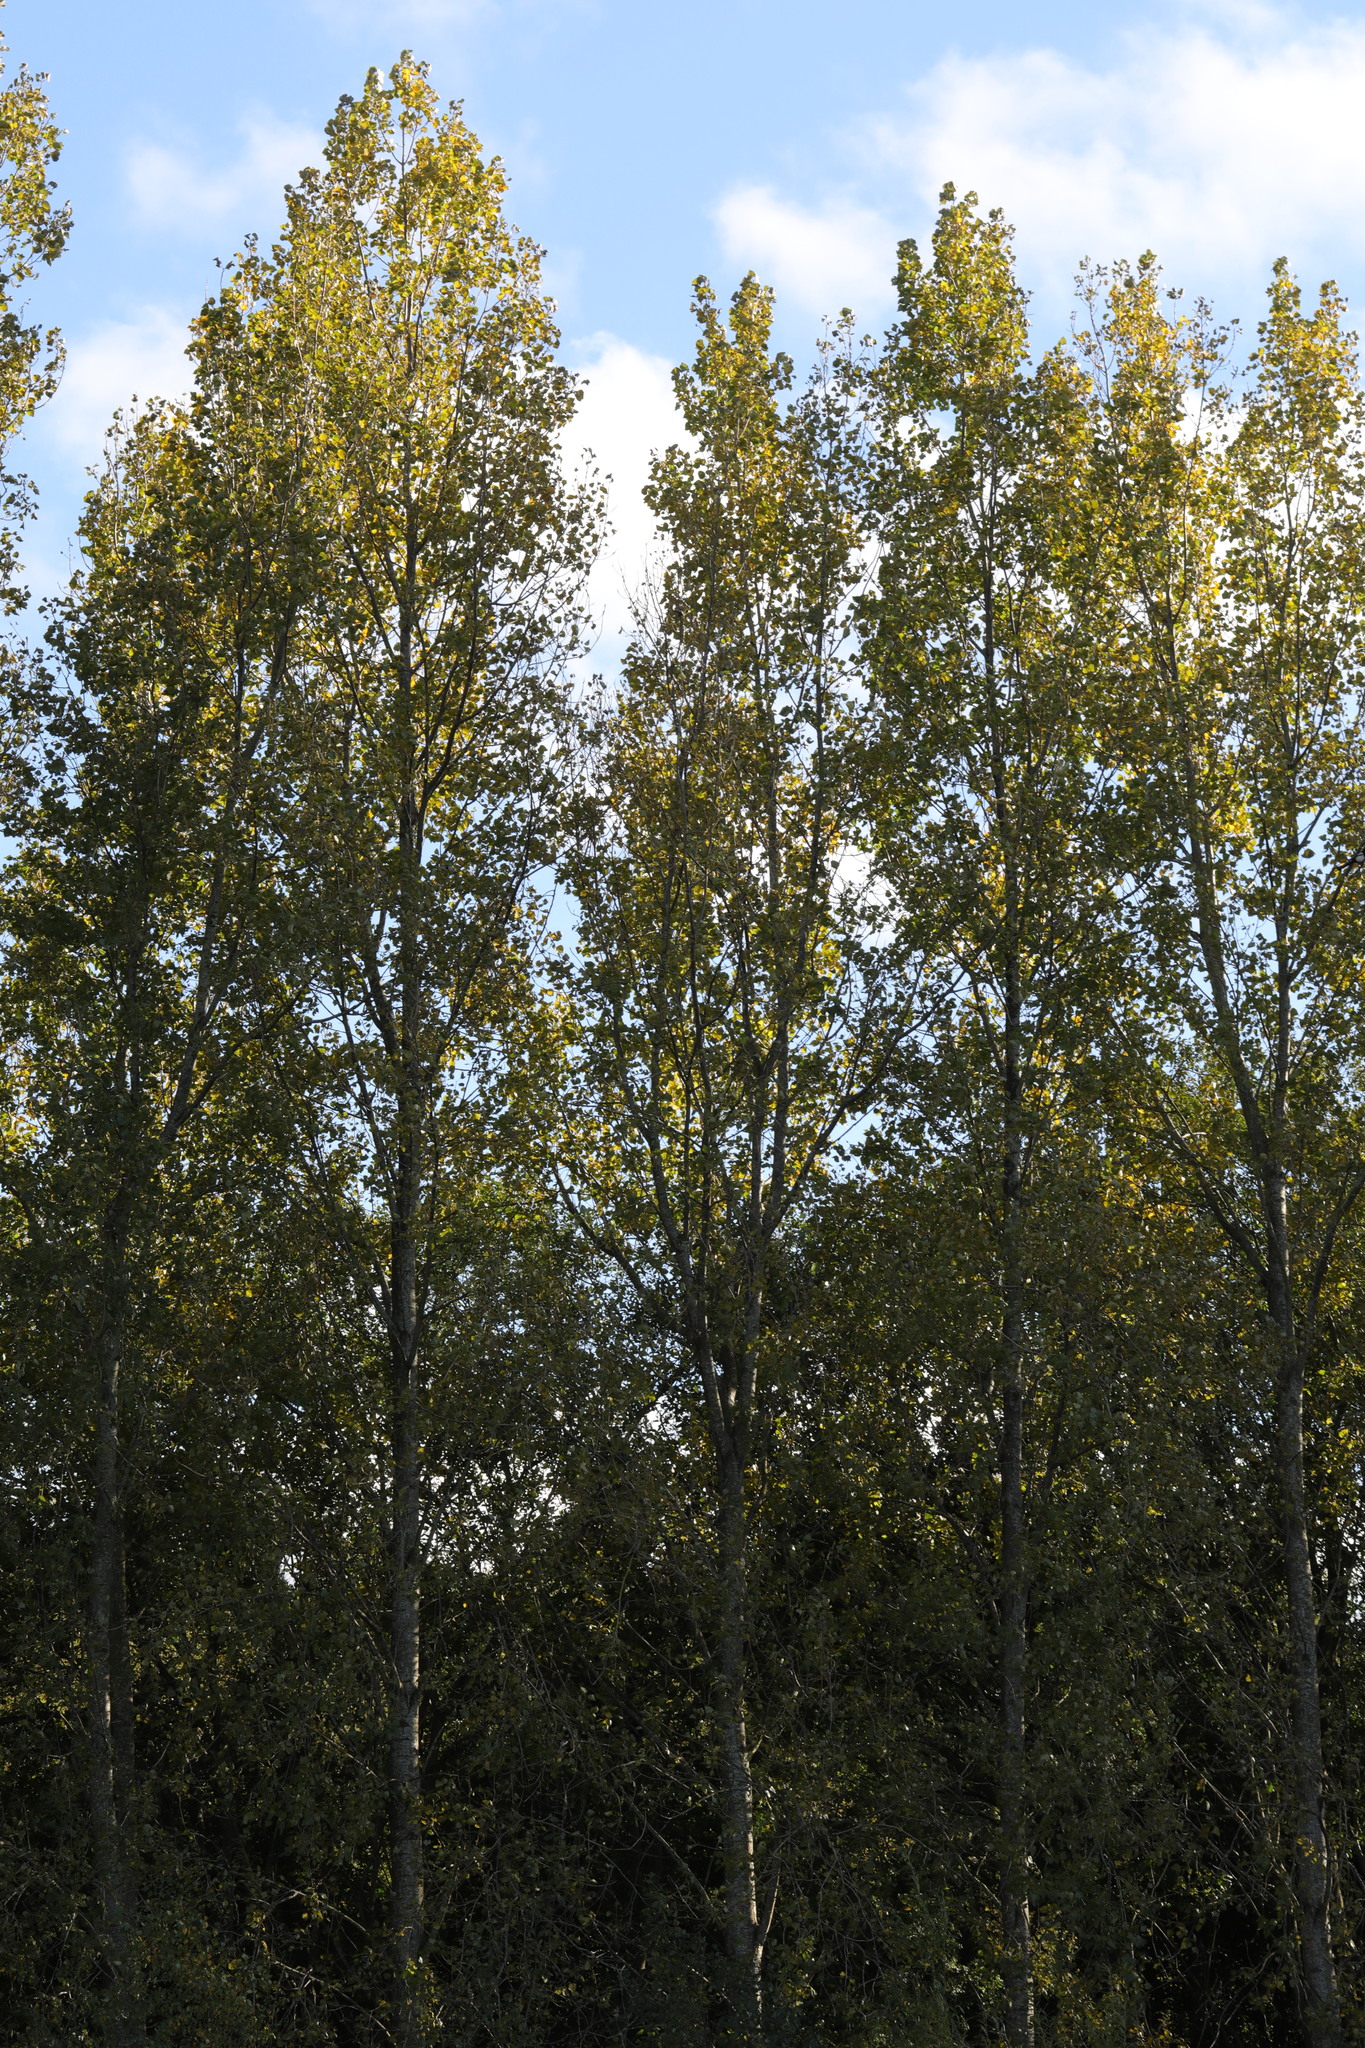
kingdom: Plantae
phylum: Tracheophyta
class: Magnoliopsida
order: Malpighiales
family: Salicaceae
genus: Populus
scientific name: Populus nigra
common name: Black poplar
